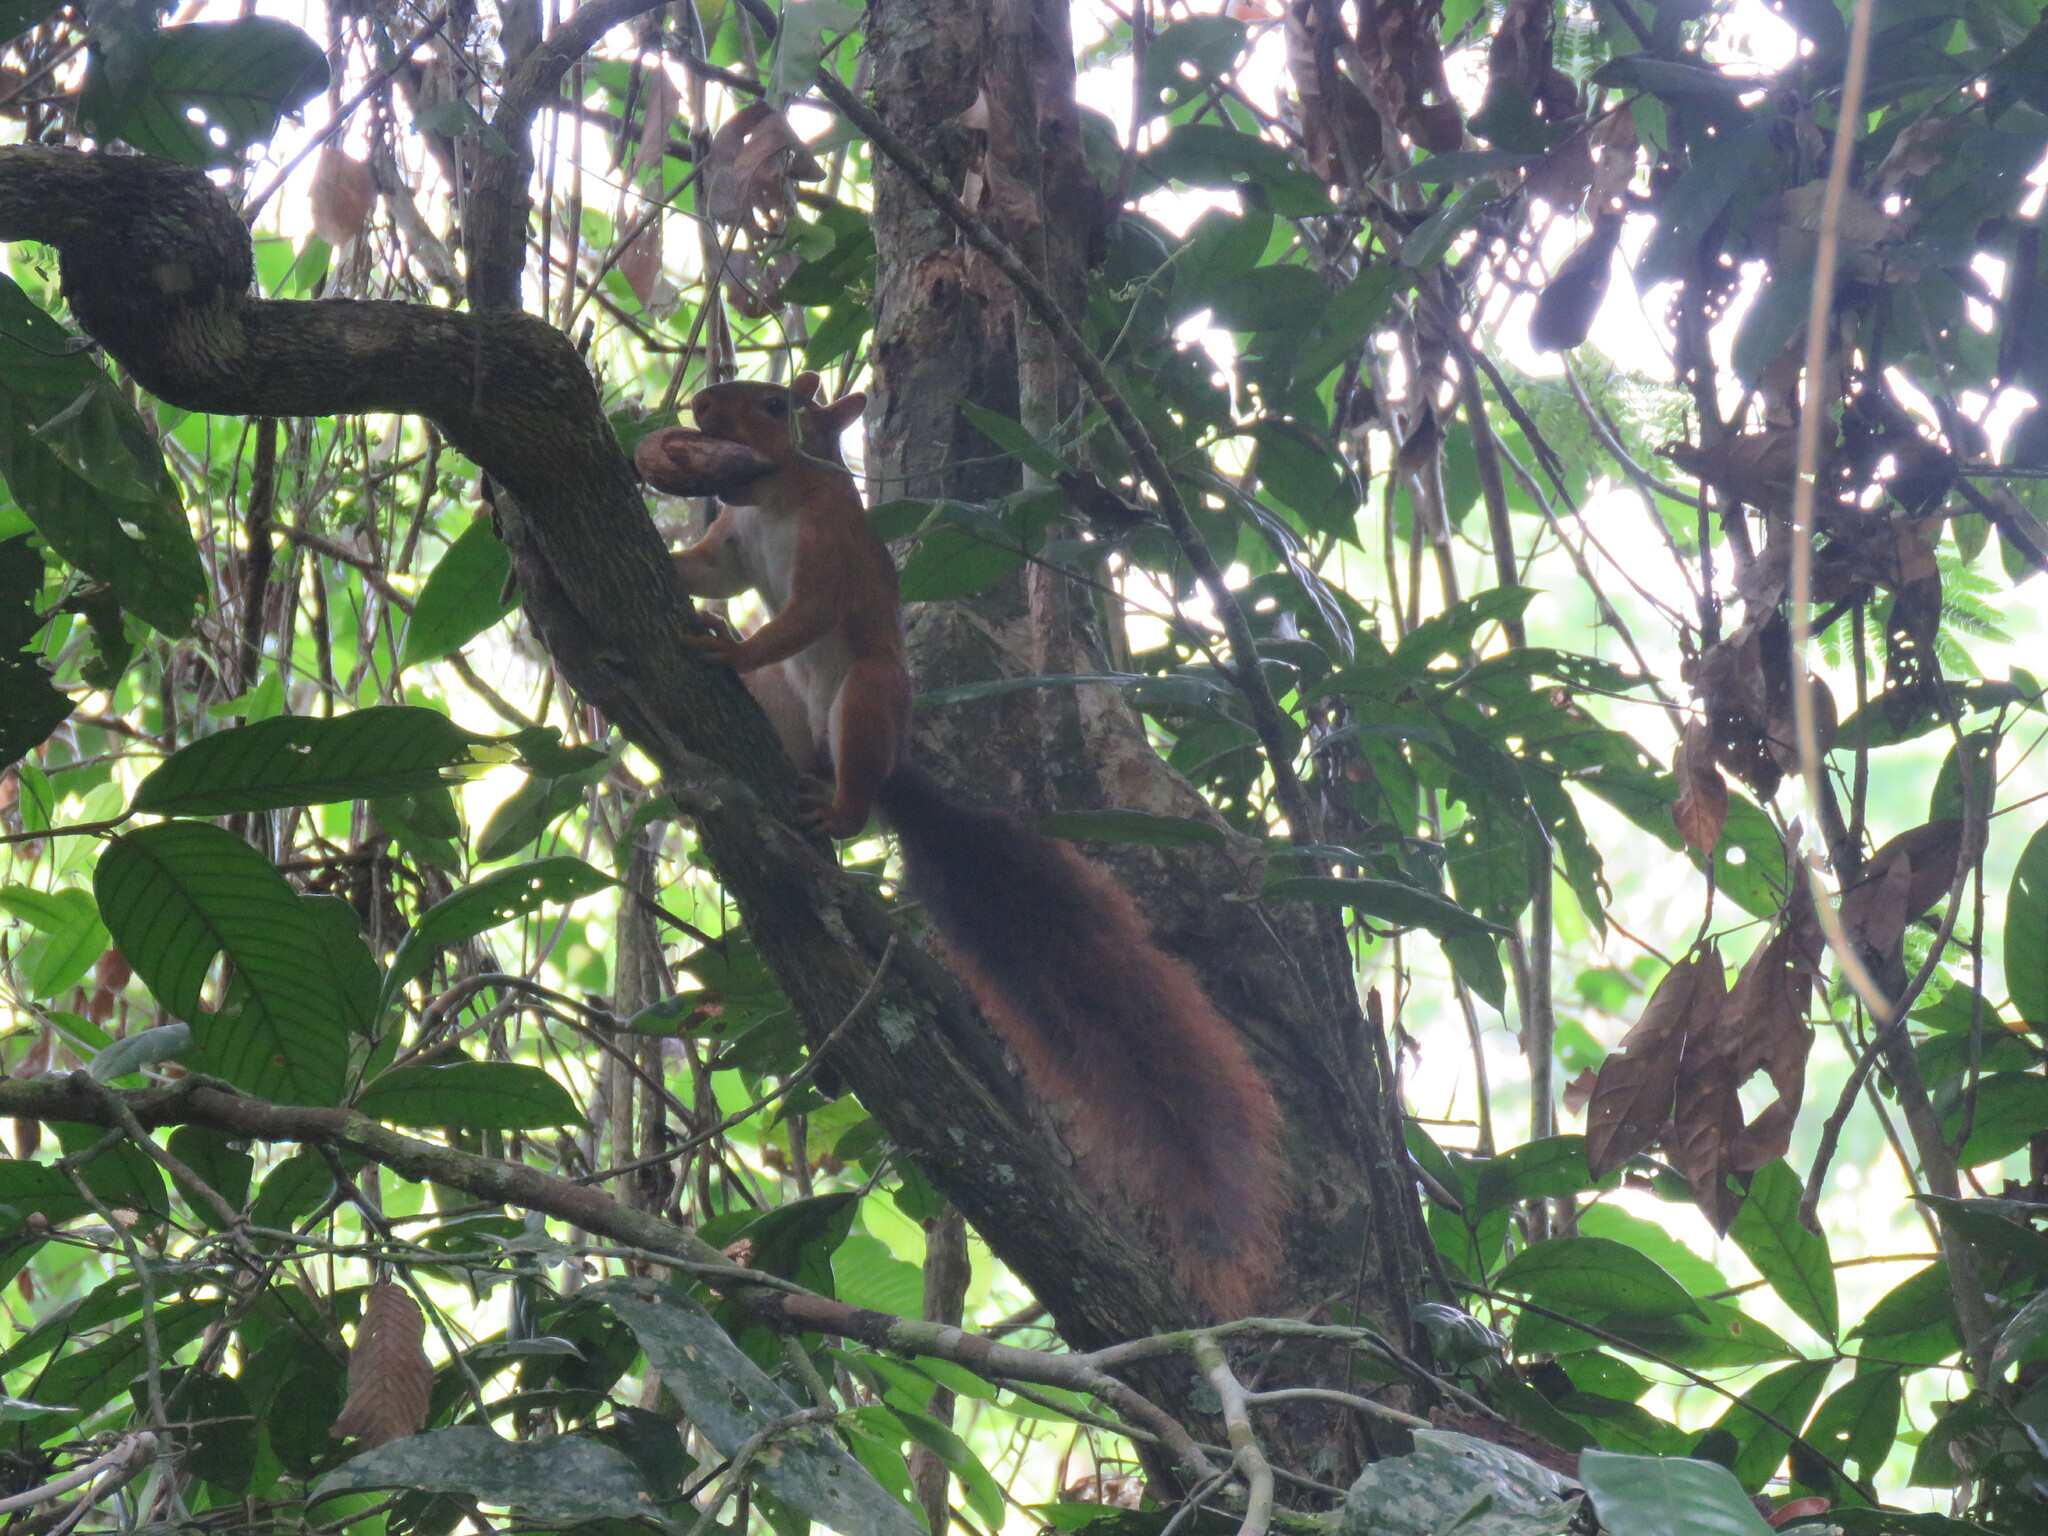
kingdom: Animalia
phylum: Chordata
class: Mammalia
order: Rodentia
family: Sciuridae
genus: Sciurus
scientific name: Sciurus spadiceus
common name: Southern amazon red squirrel
